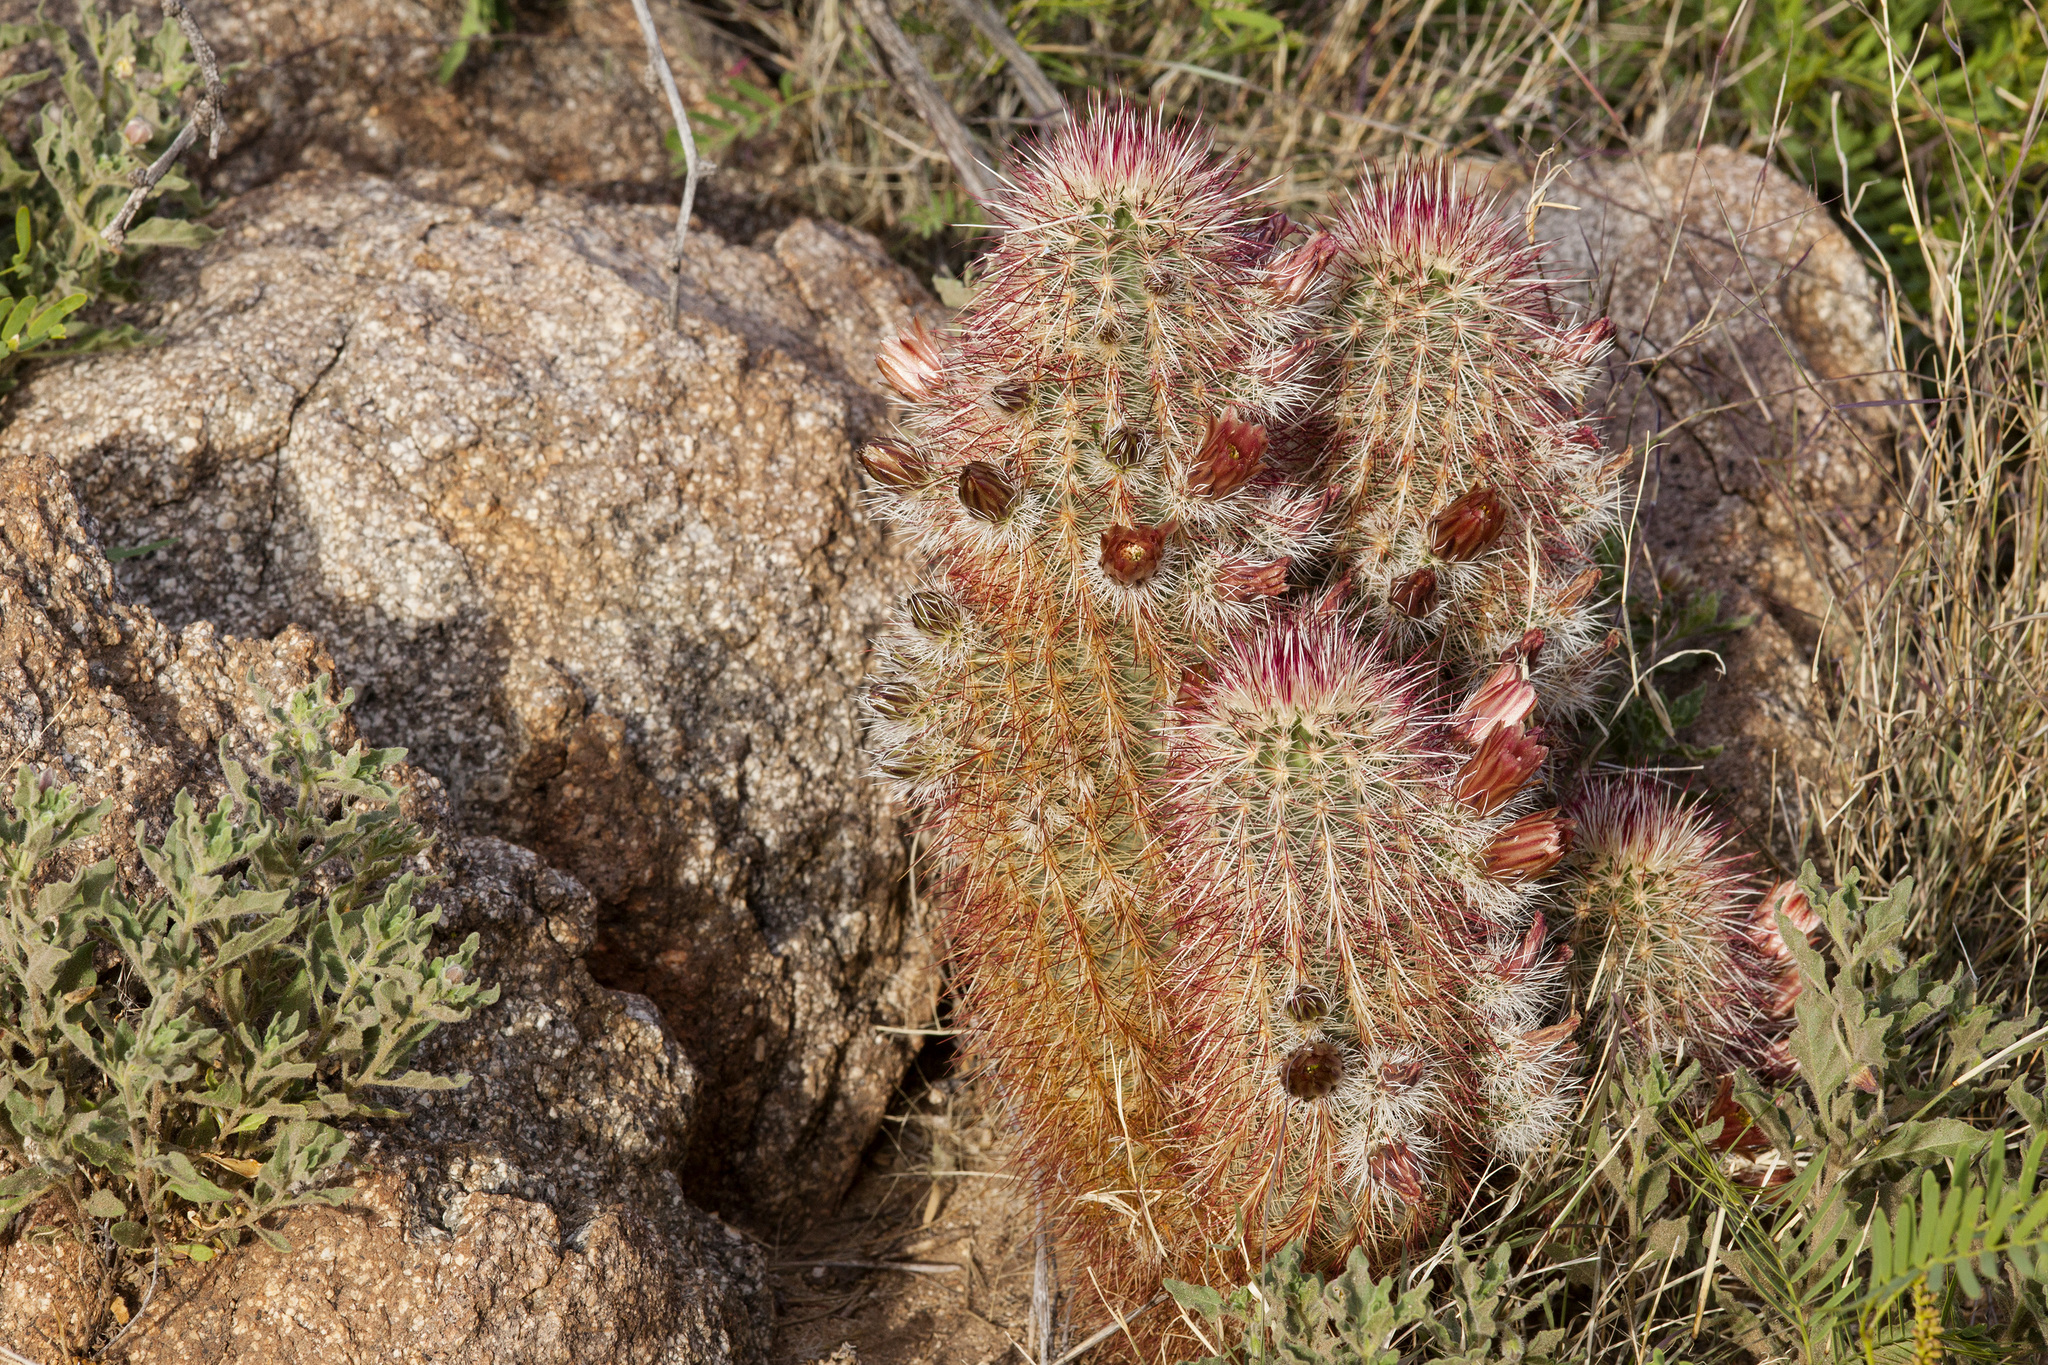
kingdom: Plantae
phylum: Tracheophyta
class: Magnoliopsida
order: Caryophyllales
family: Cactaceae
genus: Echinocereus
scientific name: Echinocereus viridiflorus
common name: Nylon hedgehog cactus
